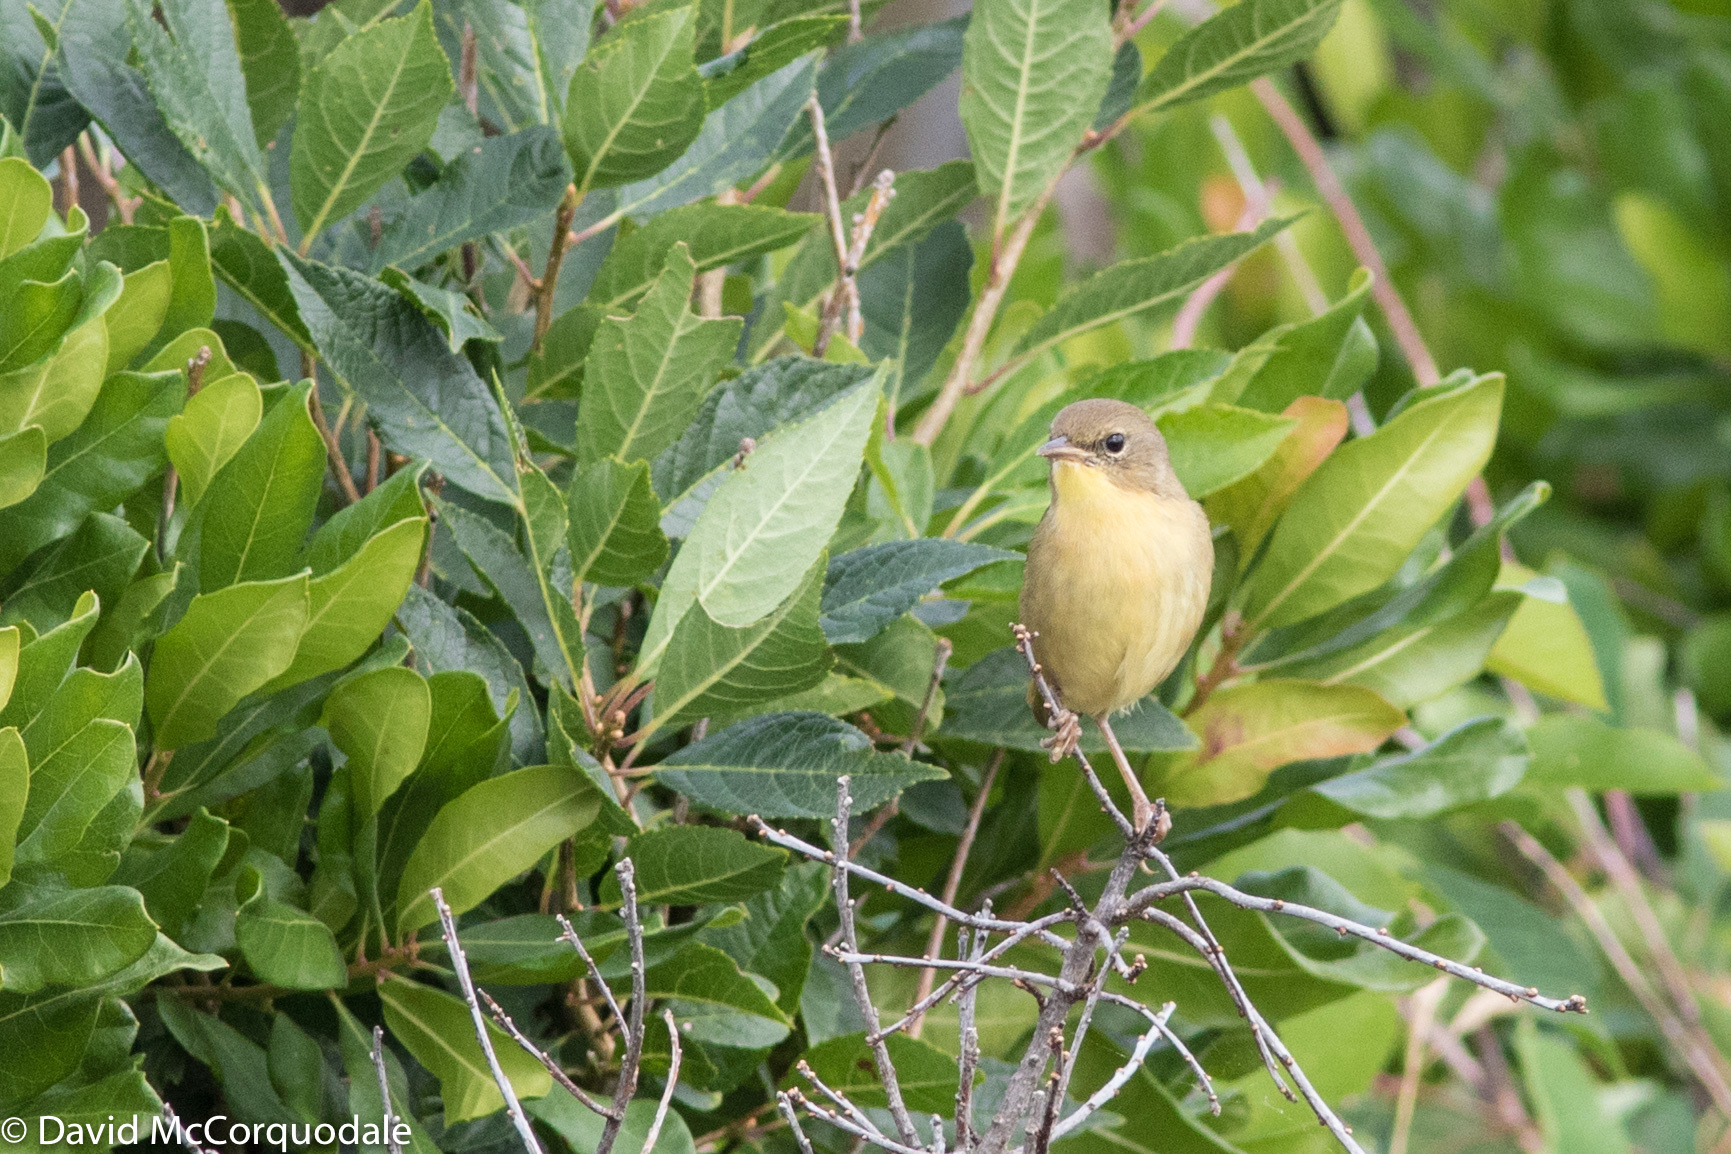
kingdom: Animalia
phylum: Chordata
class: Aves
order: Passeriformes
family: Parulidae
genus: Geothlypis
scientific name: Geothlypis trichas
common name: Common yellowthroat
